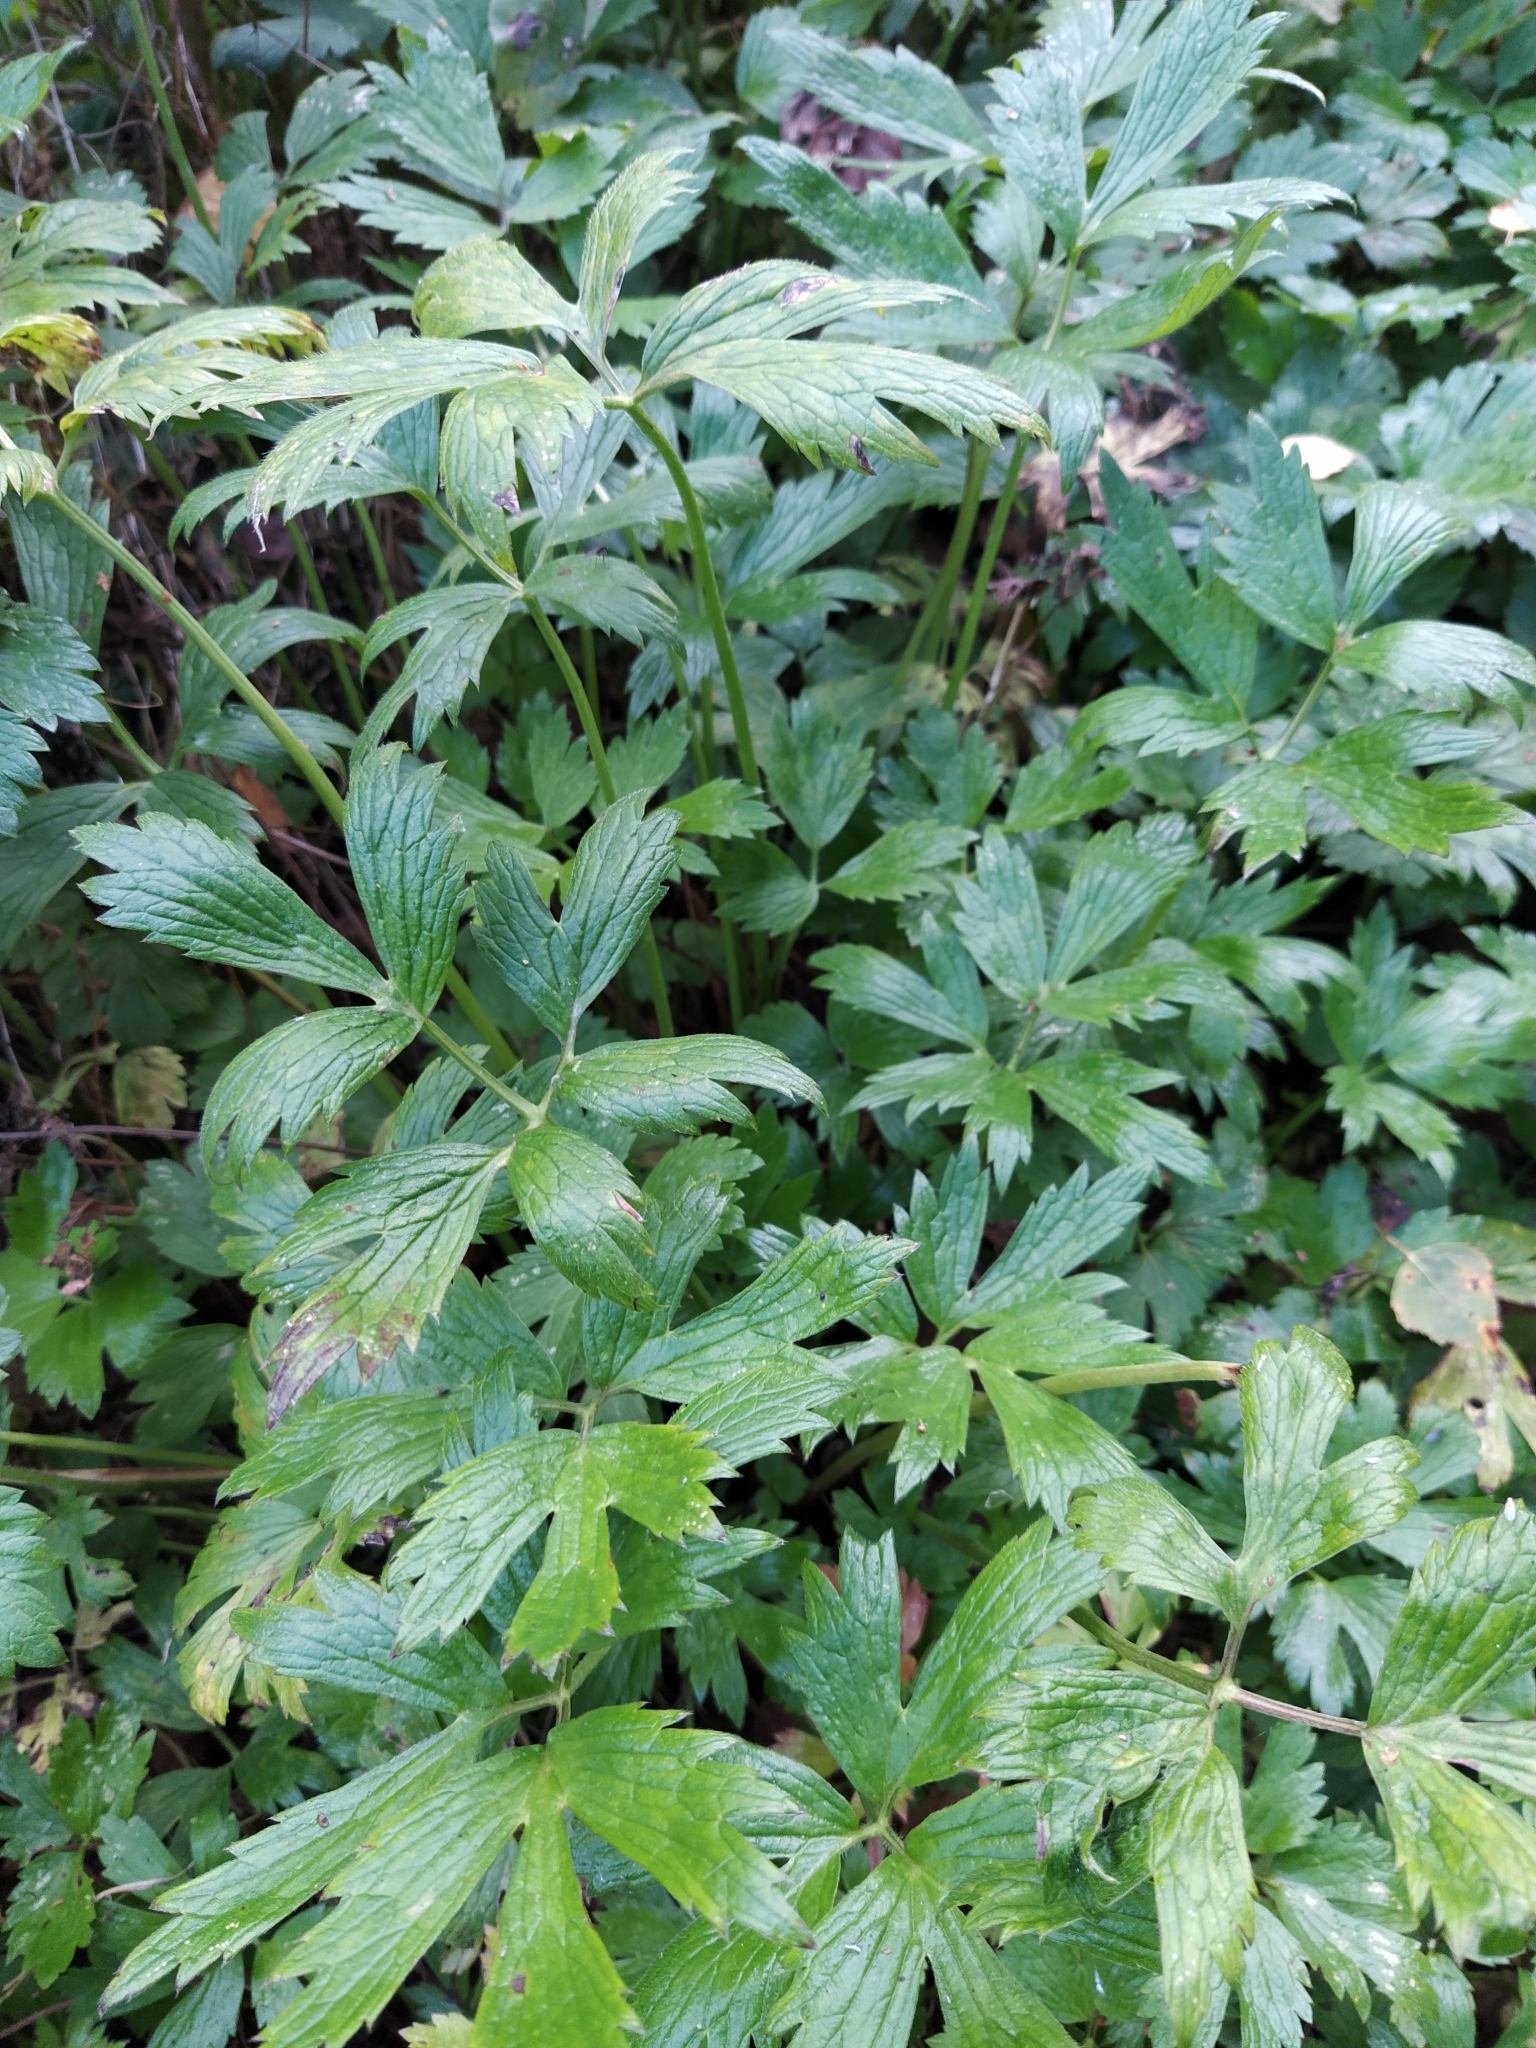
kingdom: Plantae
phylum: Tracheophyta
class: Magnoliopsida
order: Ranunculales
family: Ranunculaceae
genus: Ranunculus
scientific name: Ranunculus repens
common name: Creeping buttercup
